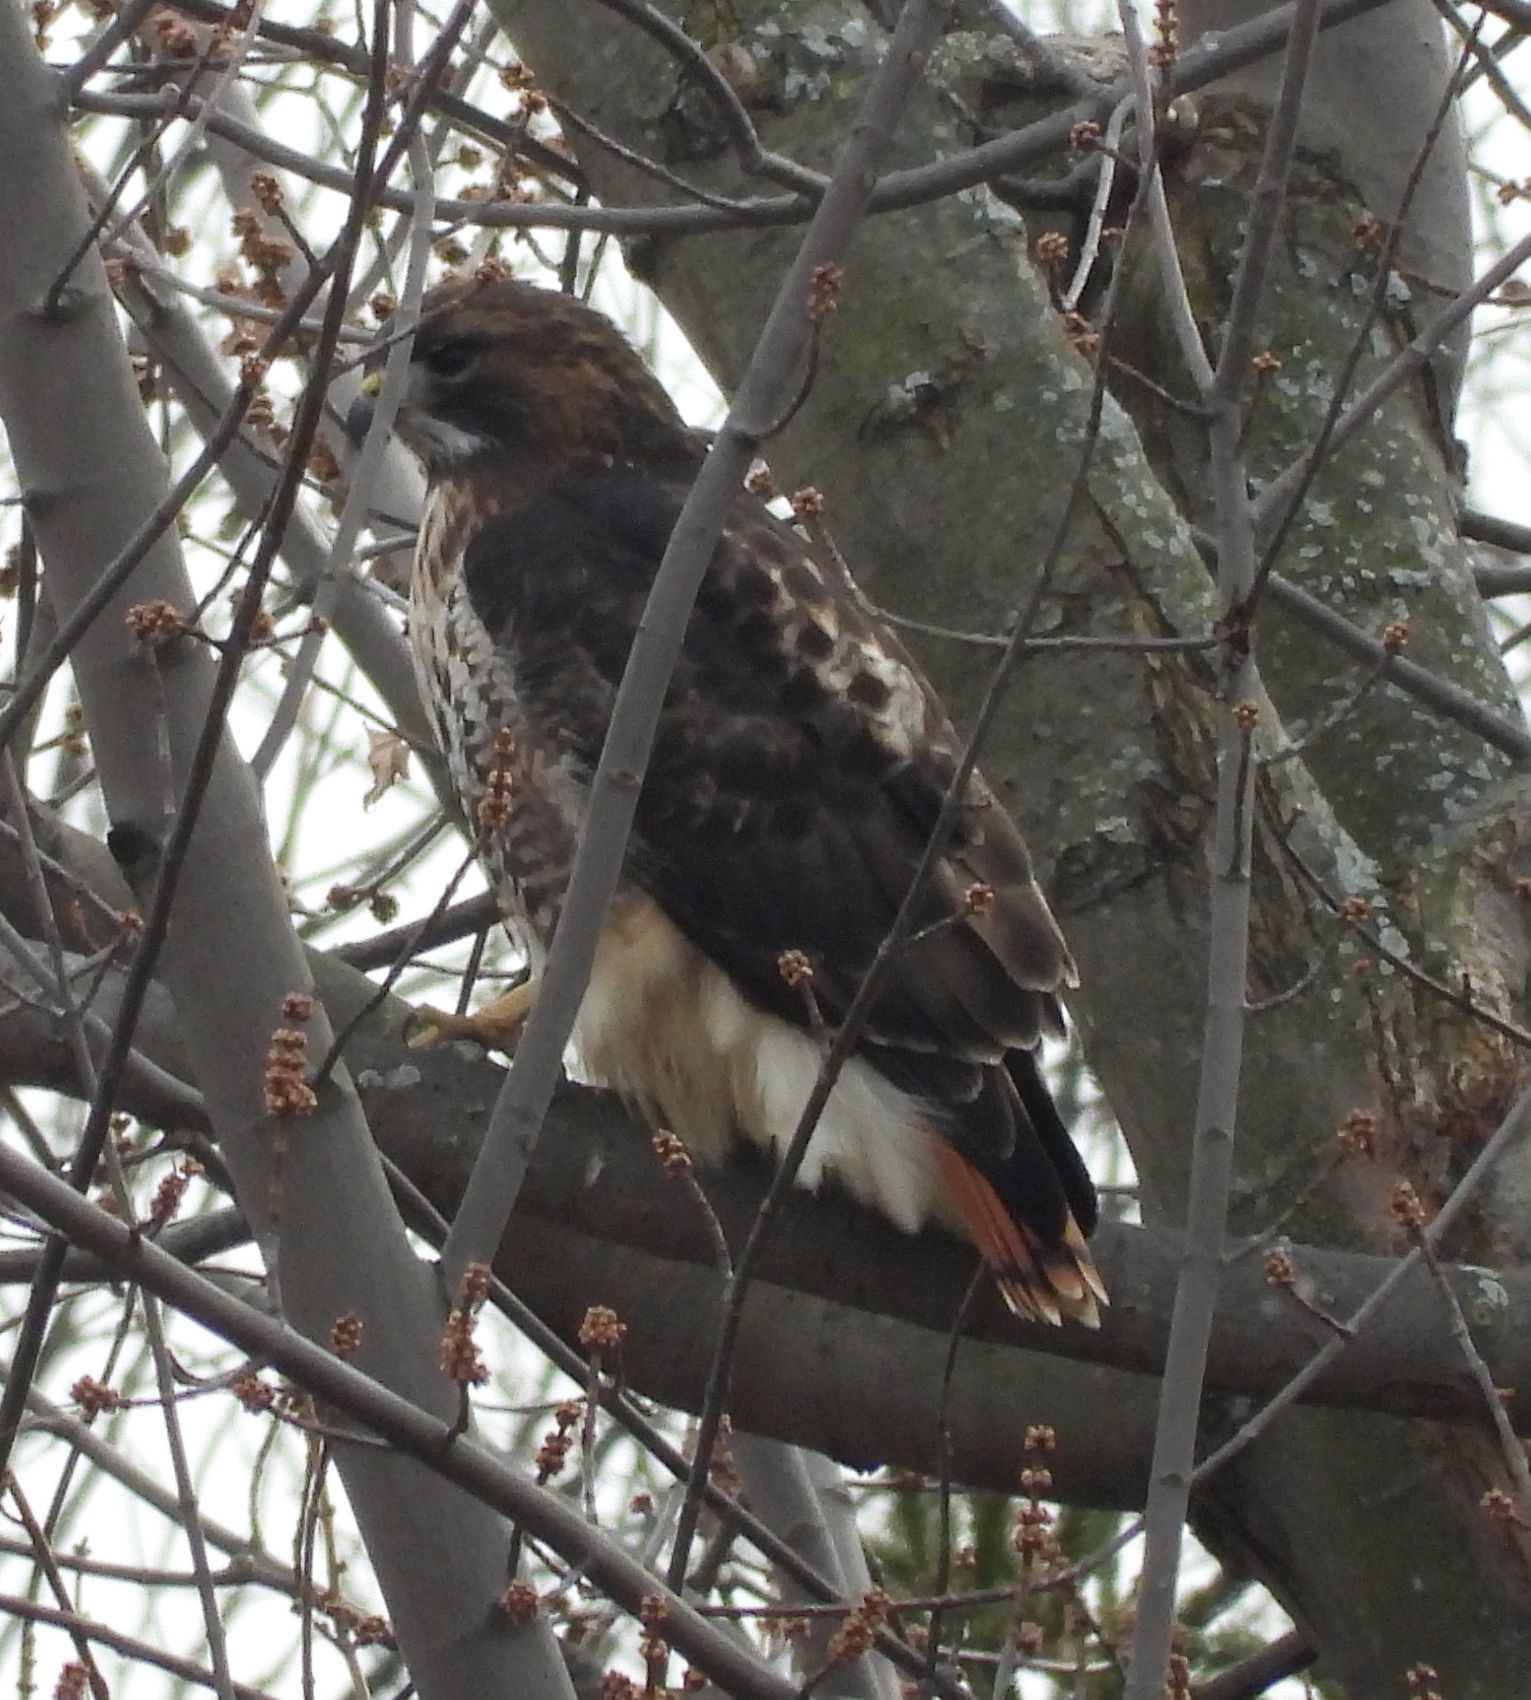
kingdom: Animalia
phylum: Chordata
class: Aves
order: Accipitriformes
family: Accipitridae
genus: Buteo
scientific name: Buteo jamaicensis
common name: Red-tailed hawk
